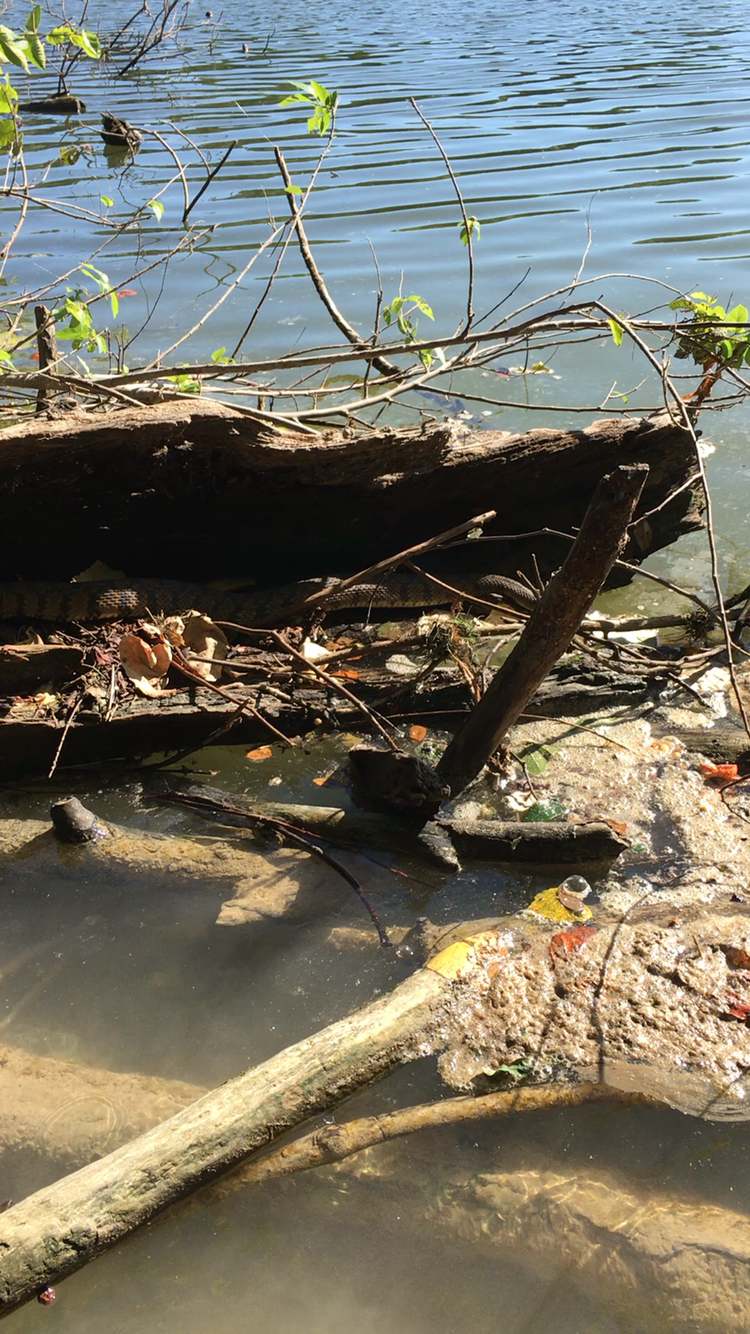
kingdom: Animalia
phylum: Chordata
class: Squamata
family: Colubridae
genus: Nerodia
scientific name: Nerodia rhombifer
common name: Diamondback water snake
